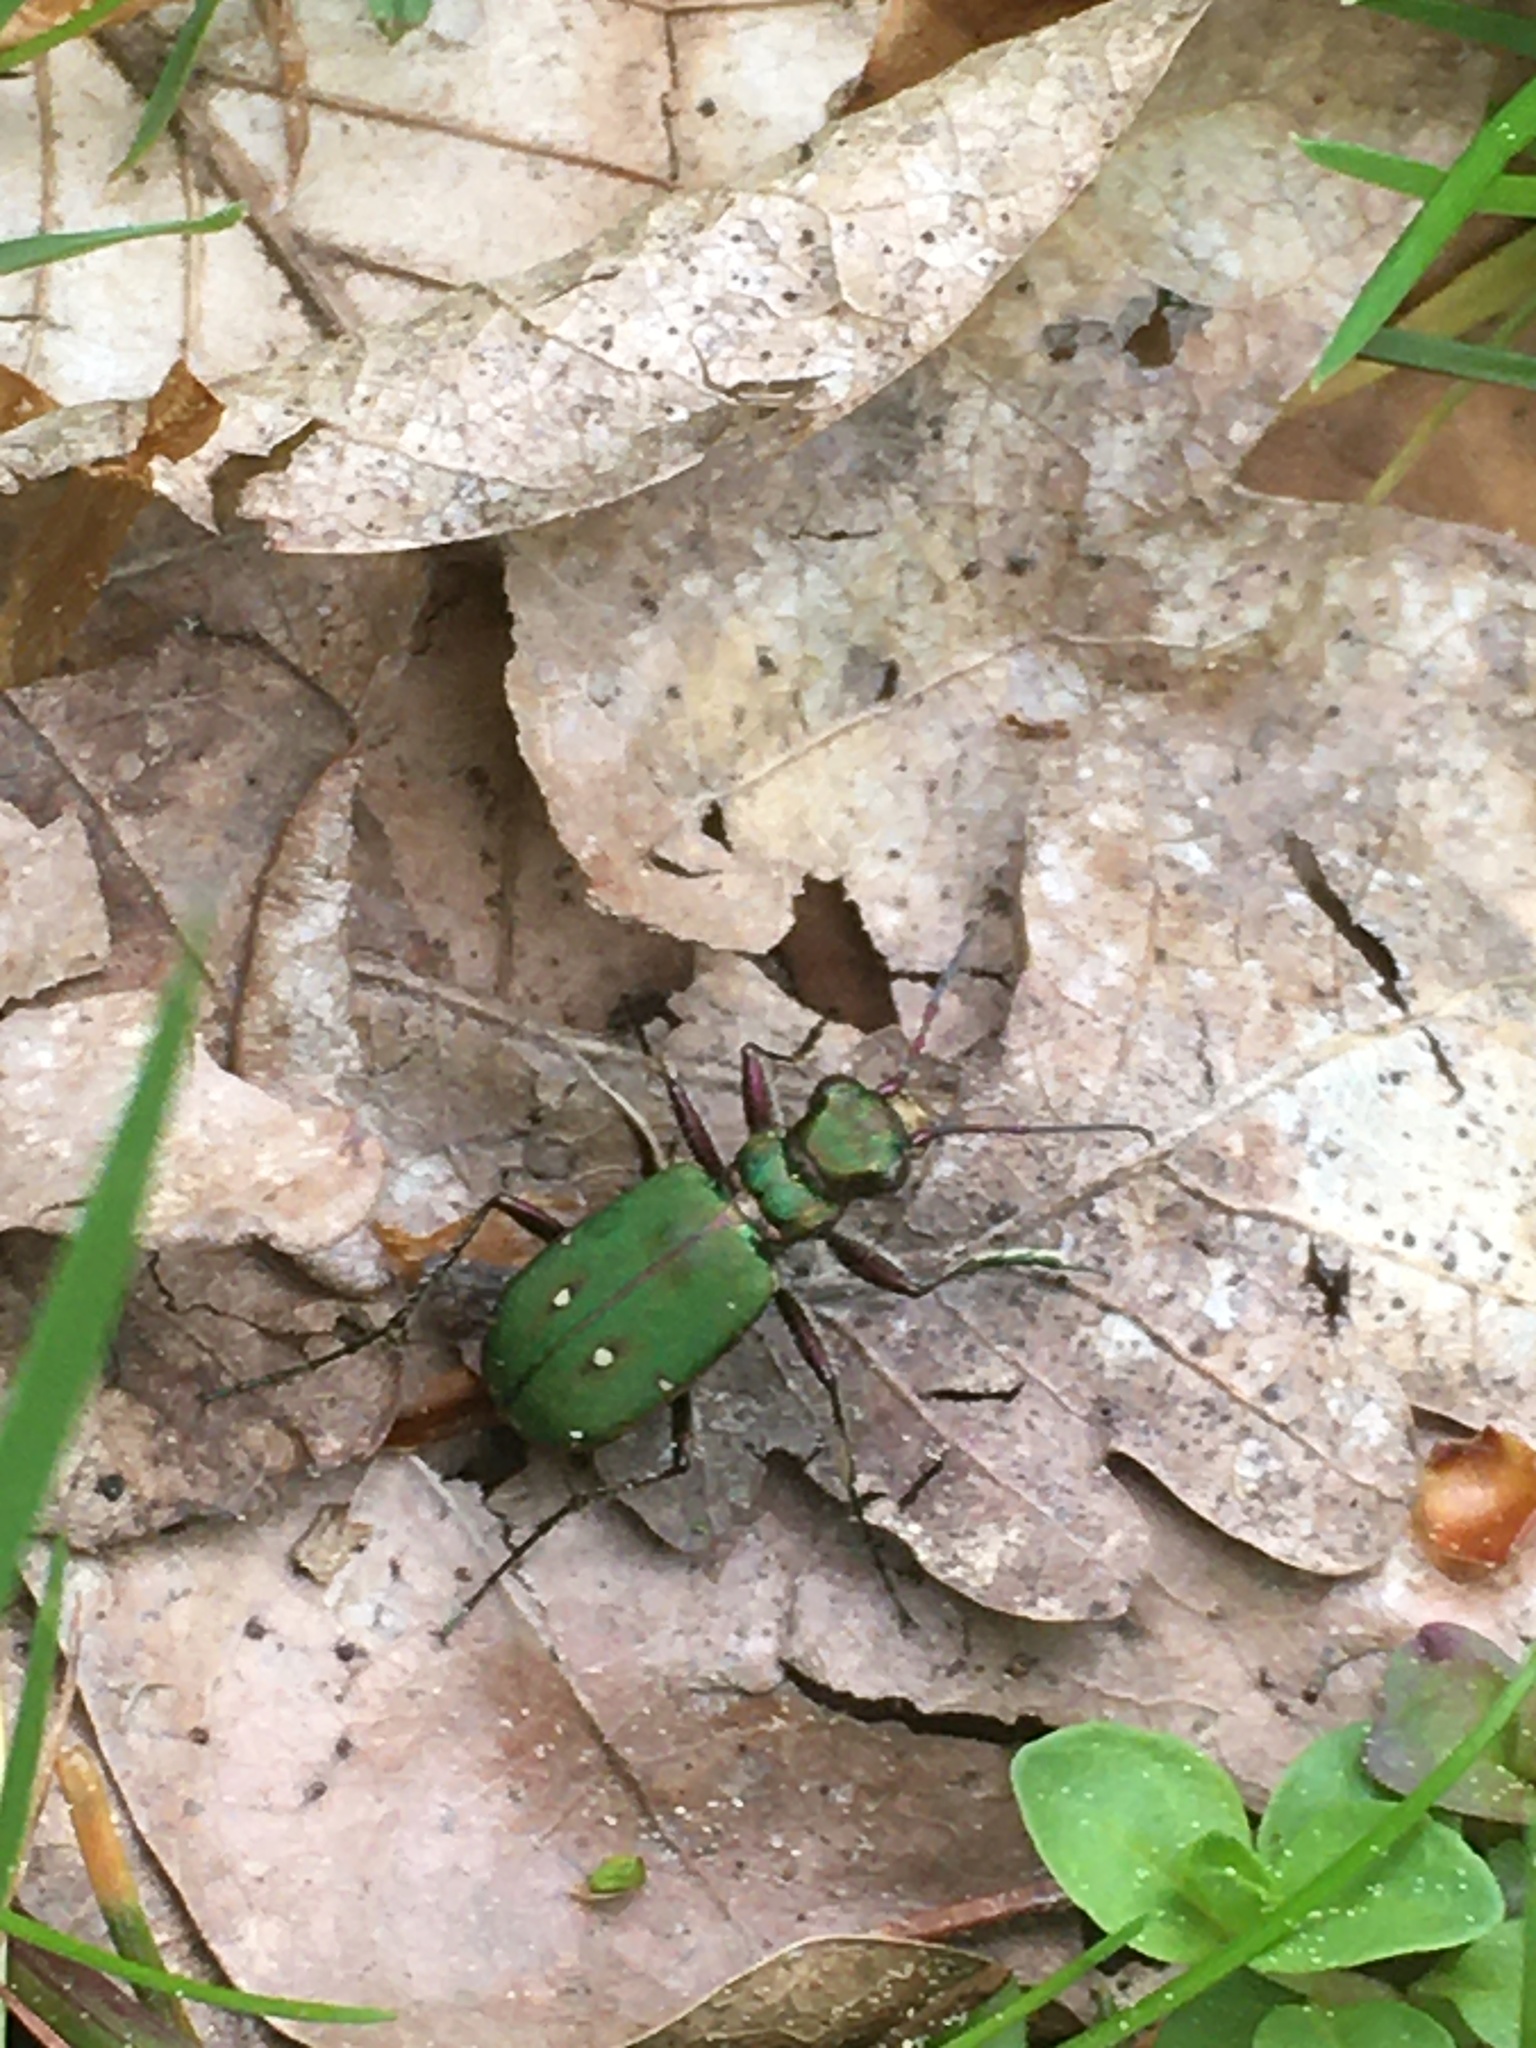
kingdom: Animalia
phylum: Arthropoda
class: Insecta
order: Coleoptera
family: Carabidae
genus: Cicindela
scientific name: Cicindela campestris
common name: Common tiger beetle
